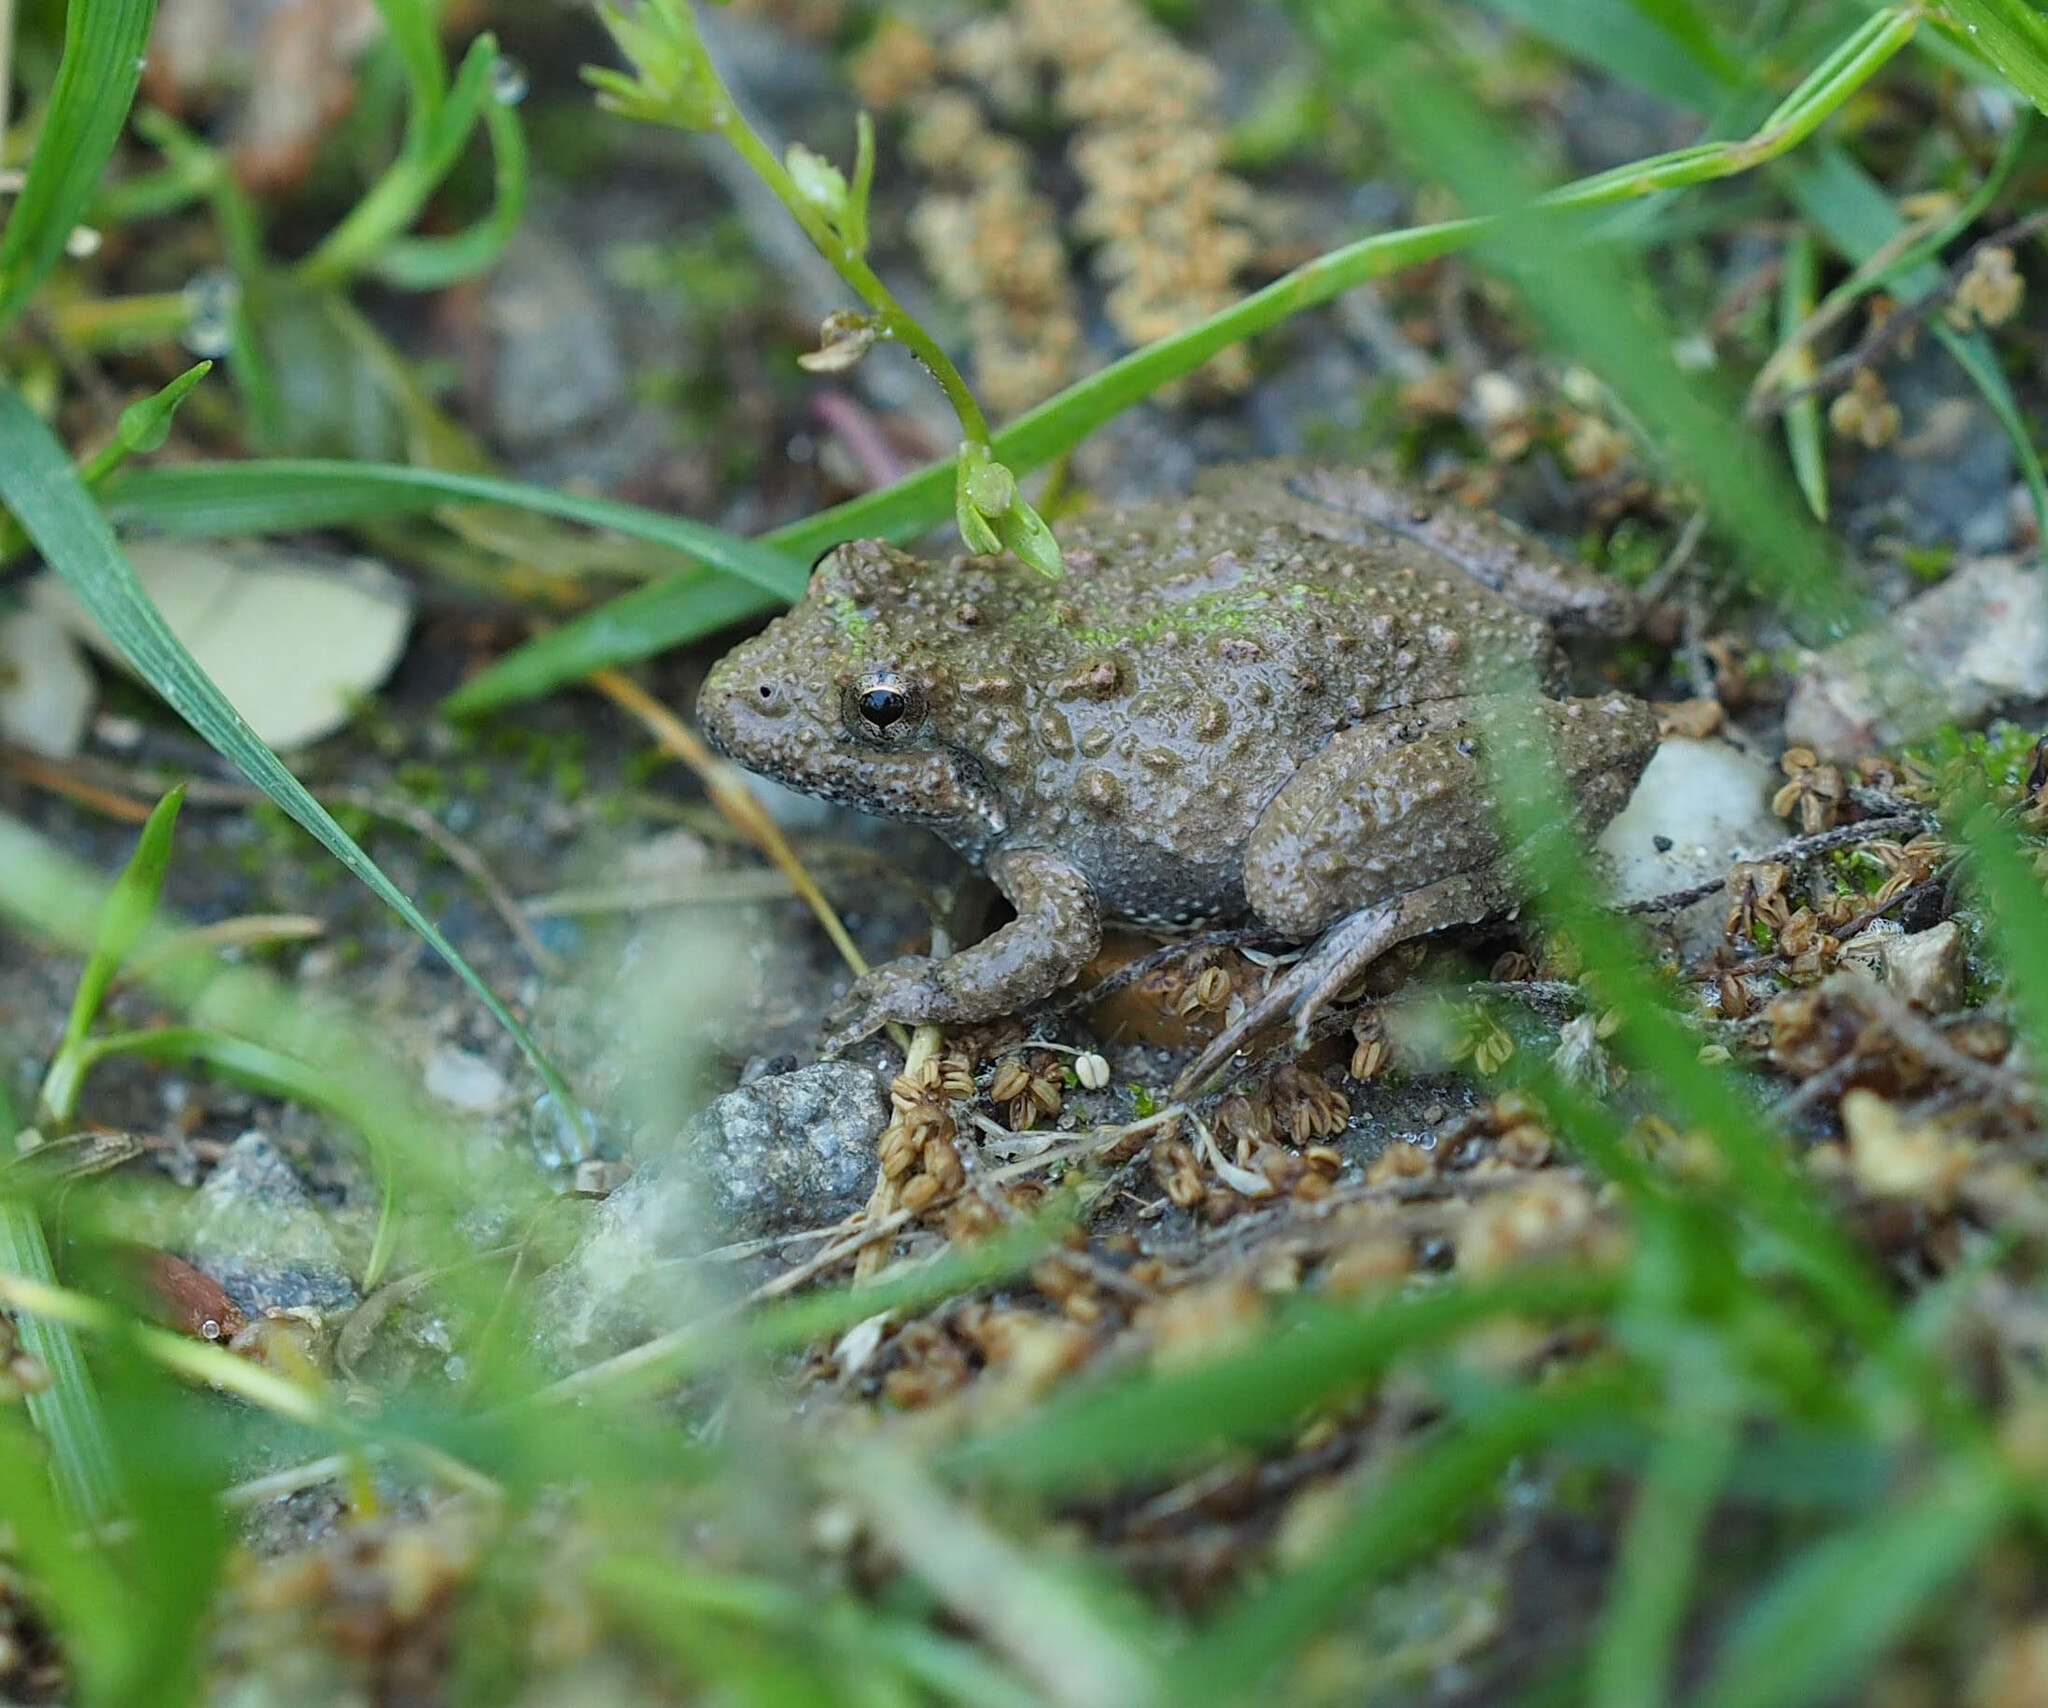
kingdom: Animalia
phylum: Chordata
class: Amphibia
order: Anura
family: Hylidae
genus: Acris
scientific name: Acris crepitans
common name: Northern cricket frog
